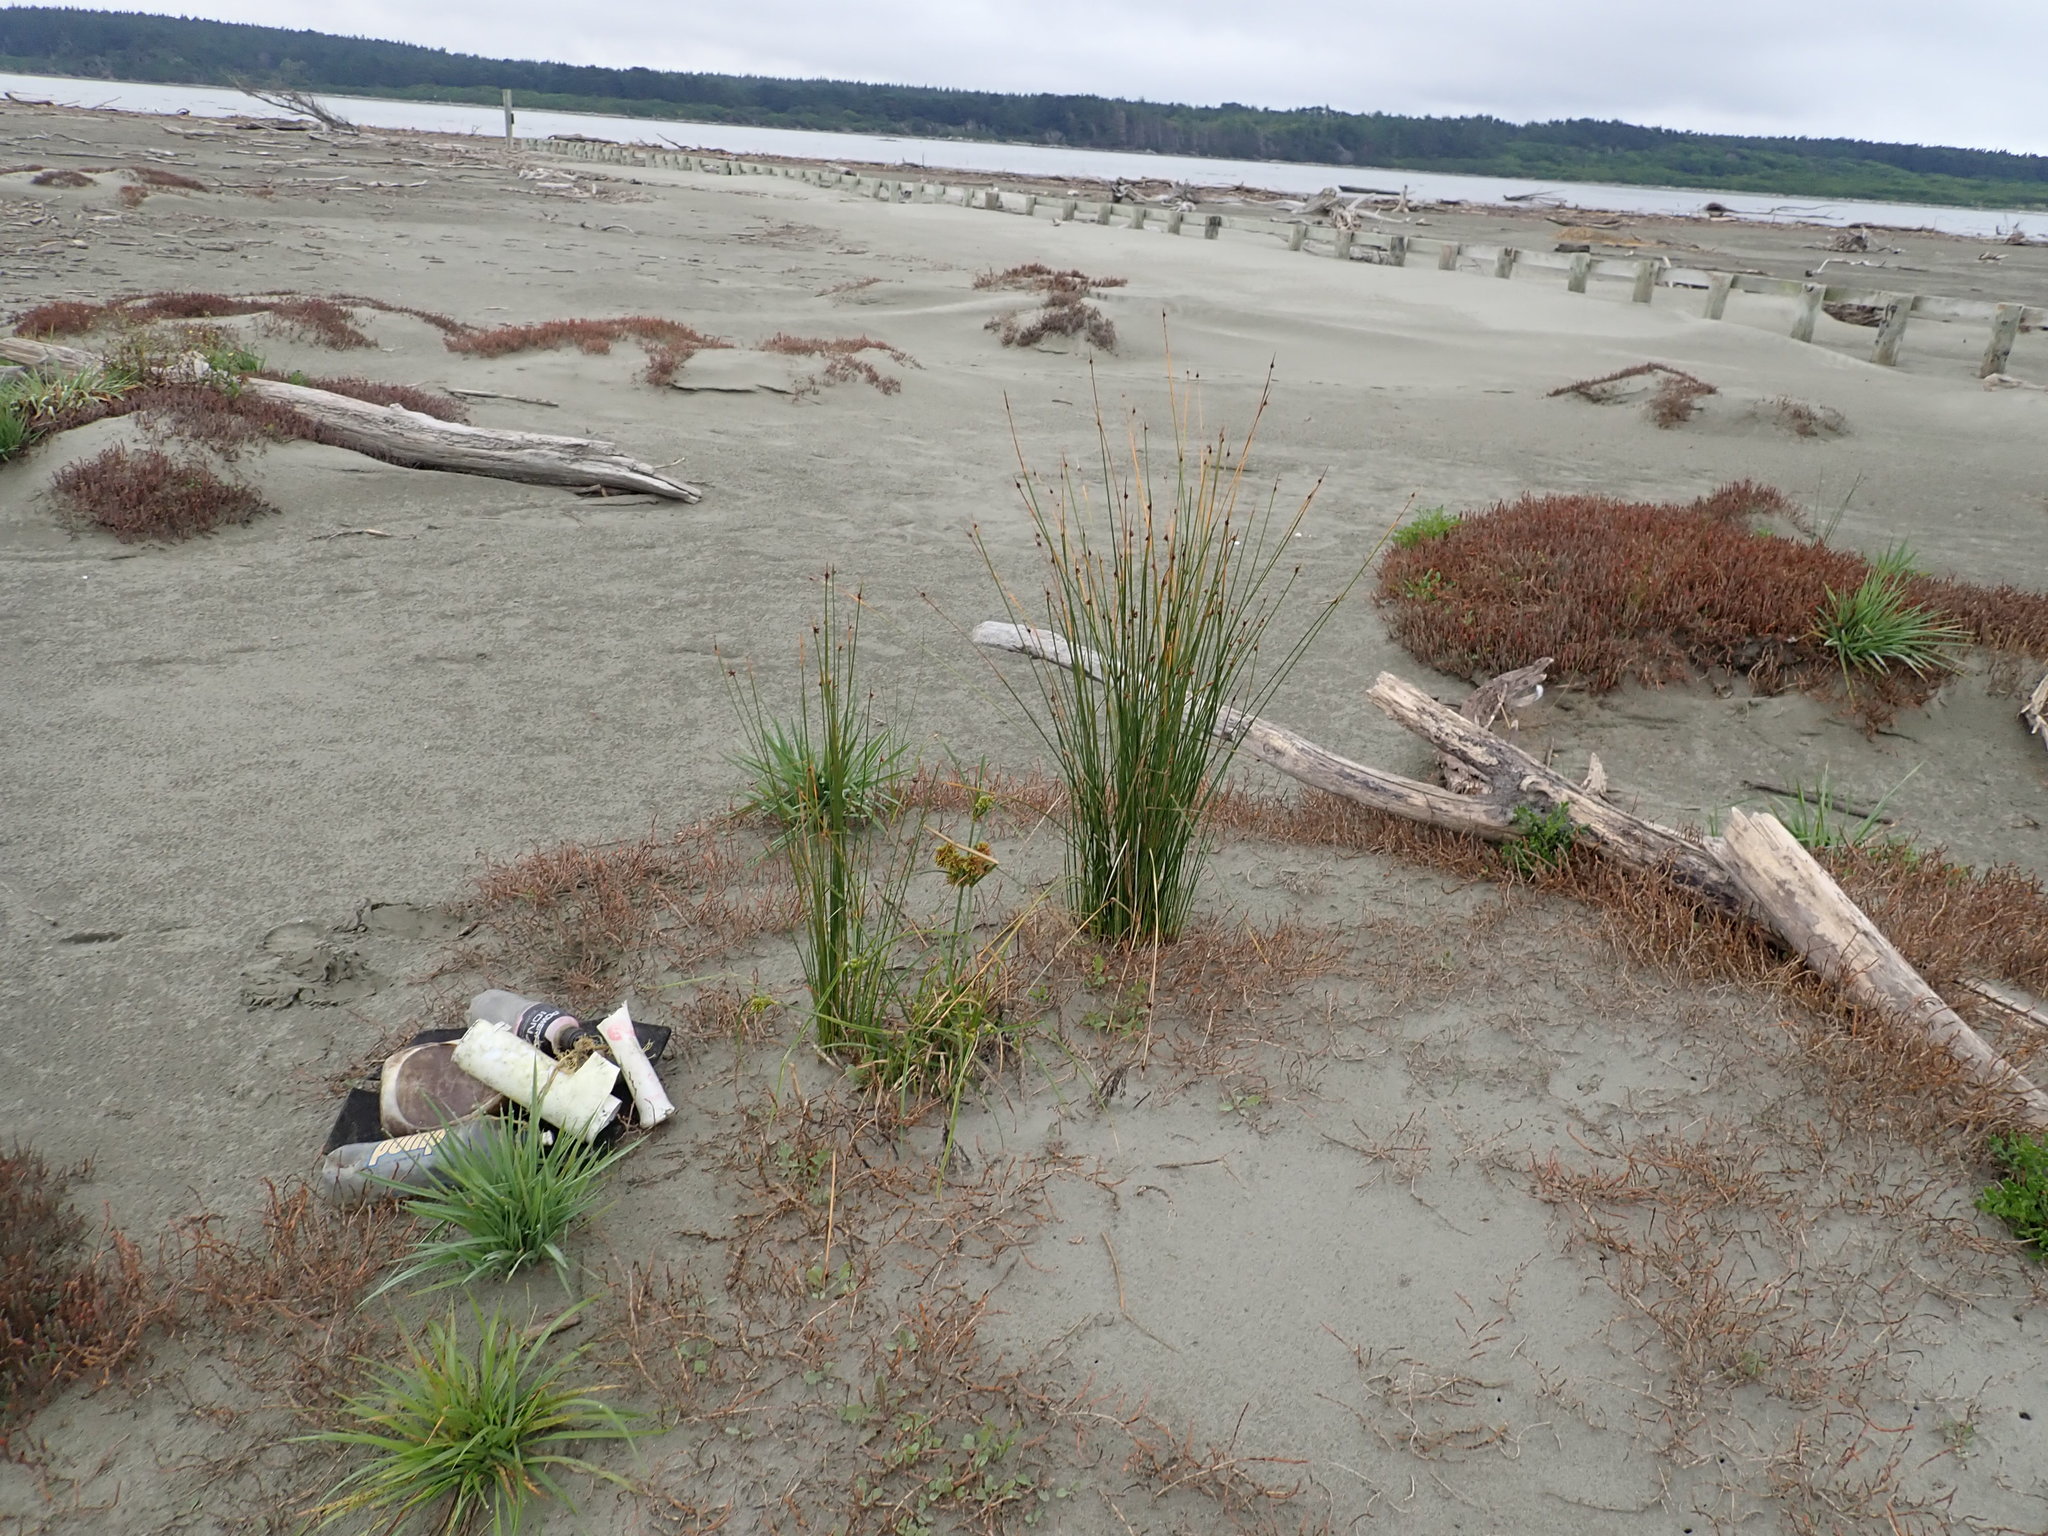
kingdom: Plantae
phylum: Tracheophyta
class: Liliopsida
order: Poales
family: Cyperaceae
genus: Cyperus
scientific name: Cyperus eragrostis
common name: Tall flatsedge
